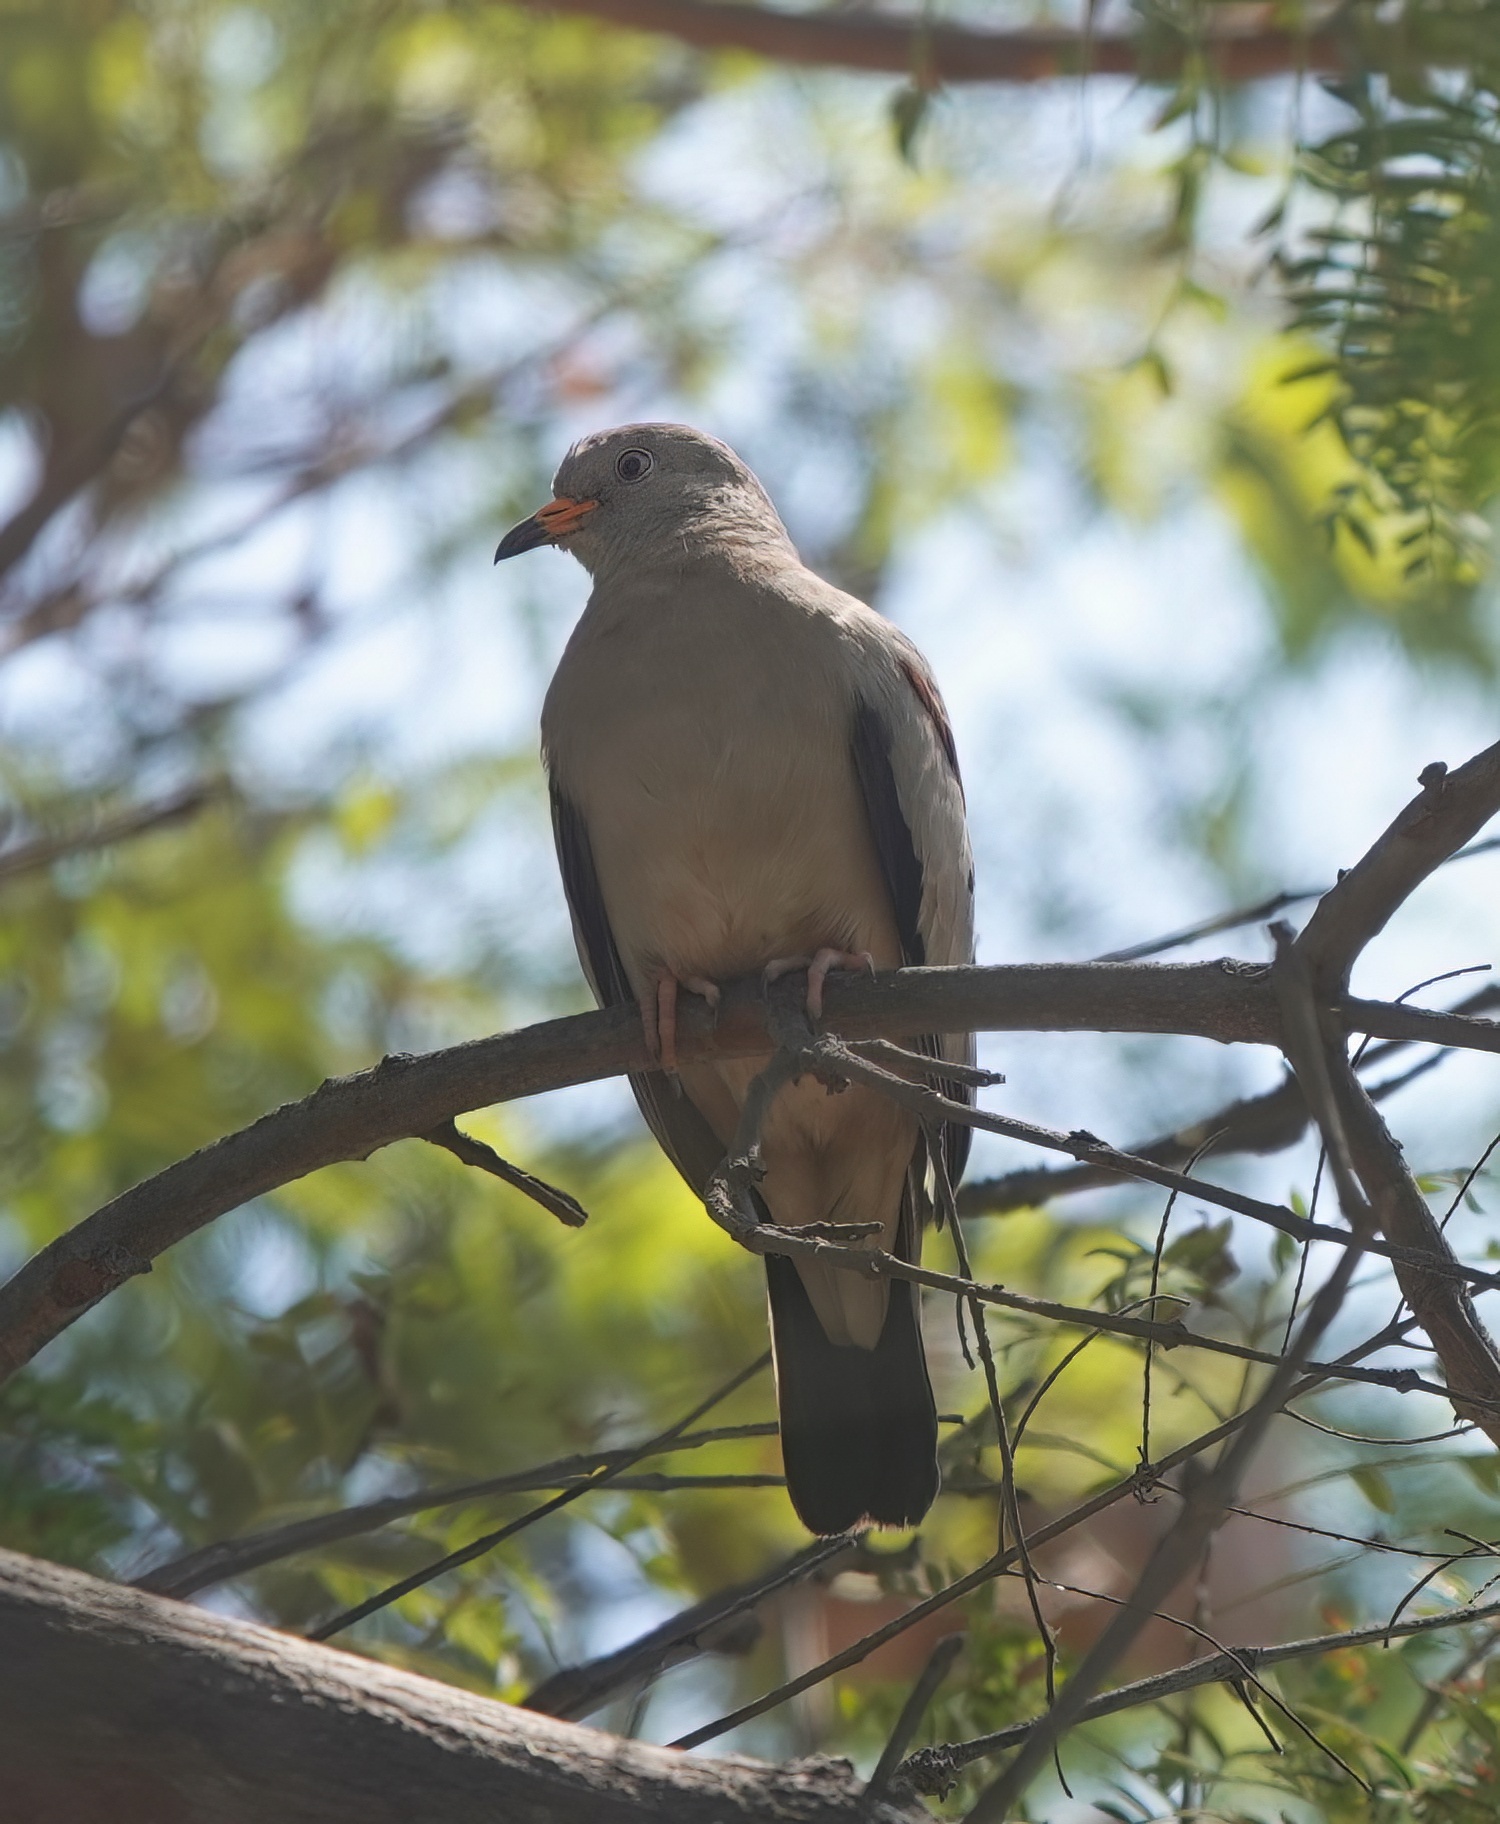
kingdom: Animalia
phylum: Chordata
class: Aves
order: Columbiformes
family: Columbidae
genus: Columbina
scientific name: Columbina cruziana
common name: Croaking ground dove
